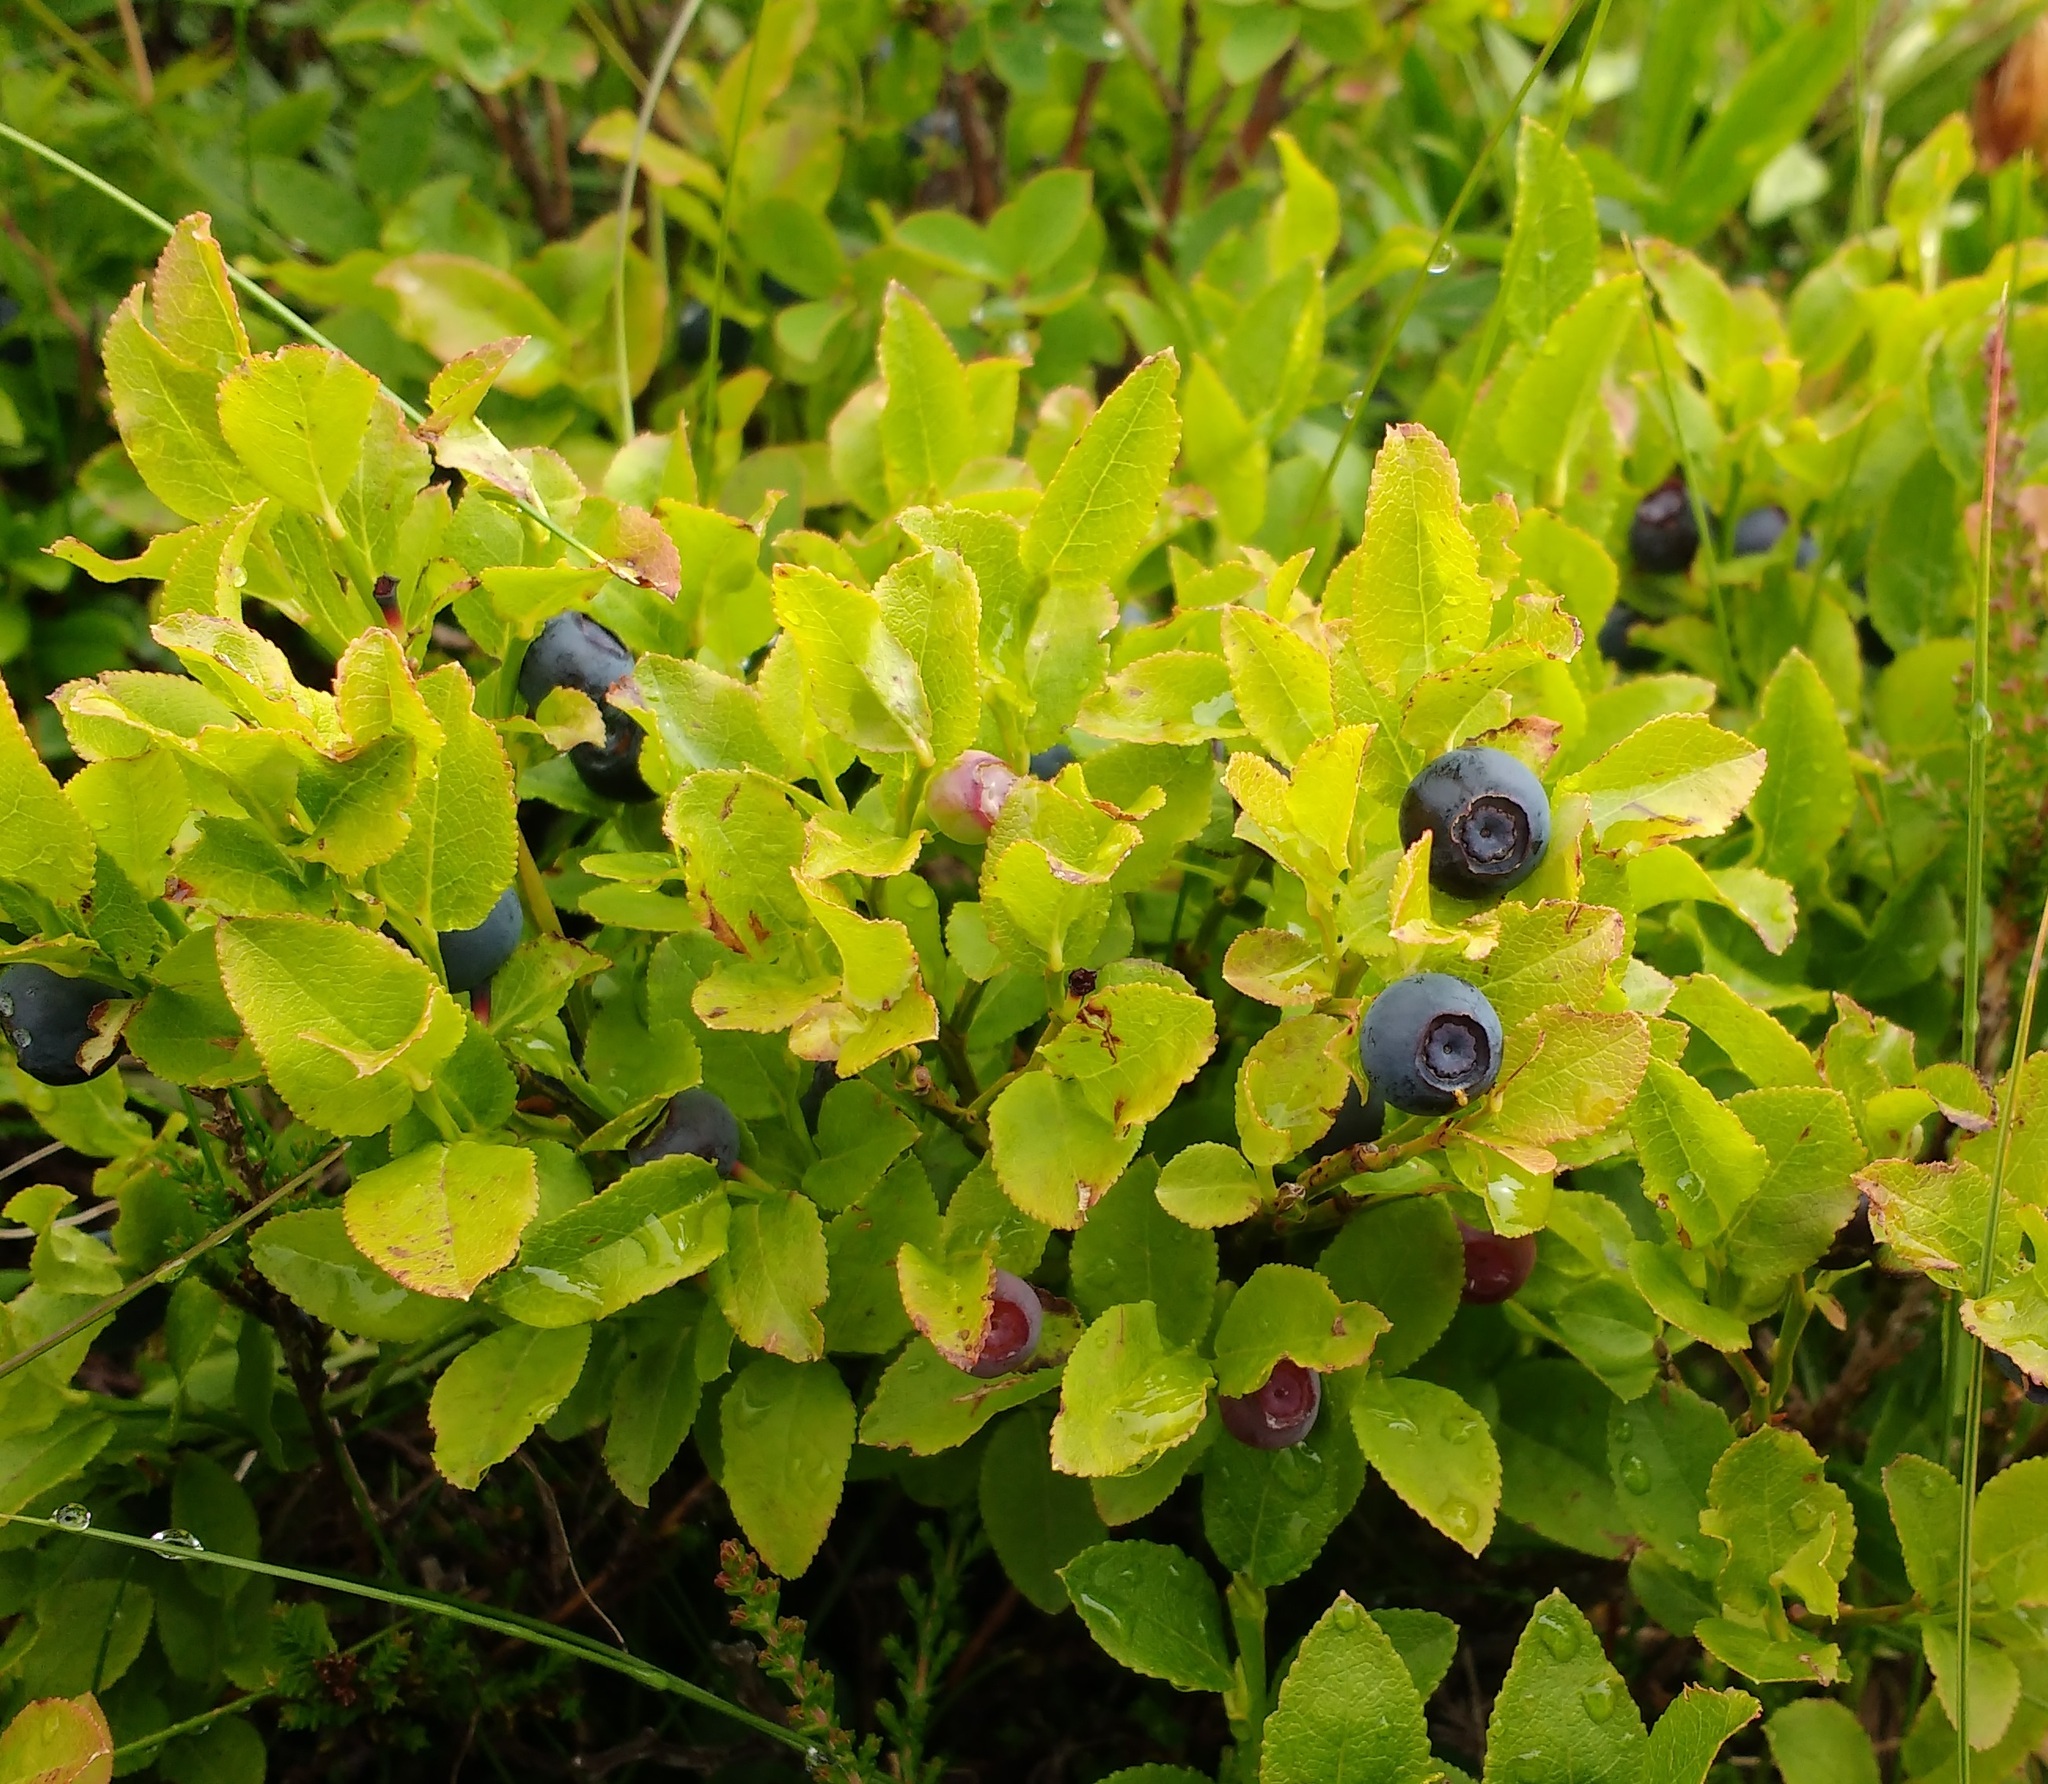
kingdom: Plantae
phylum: Tracheophyta
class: Magnoliopsida
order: Ericales
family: Ericaceae
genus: Vaccinium
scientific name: Vaccinium myrtillus
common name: Bilberry
